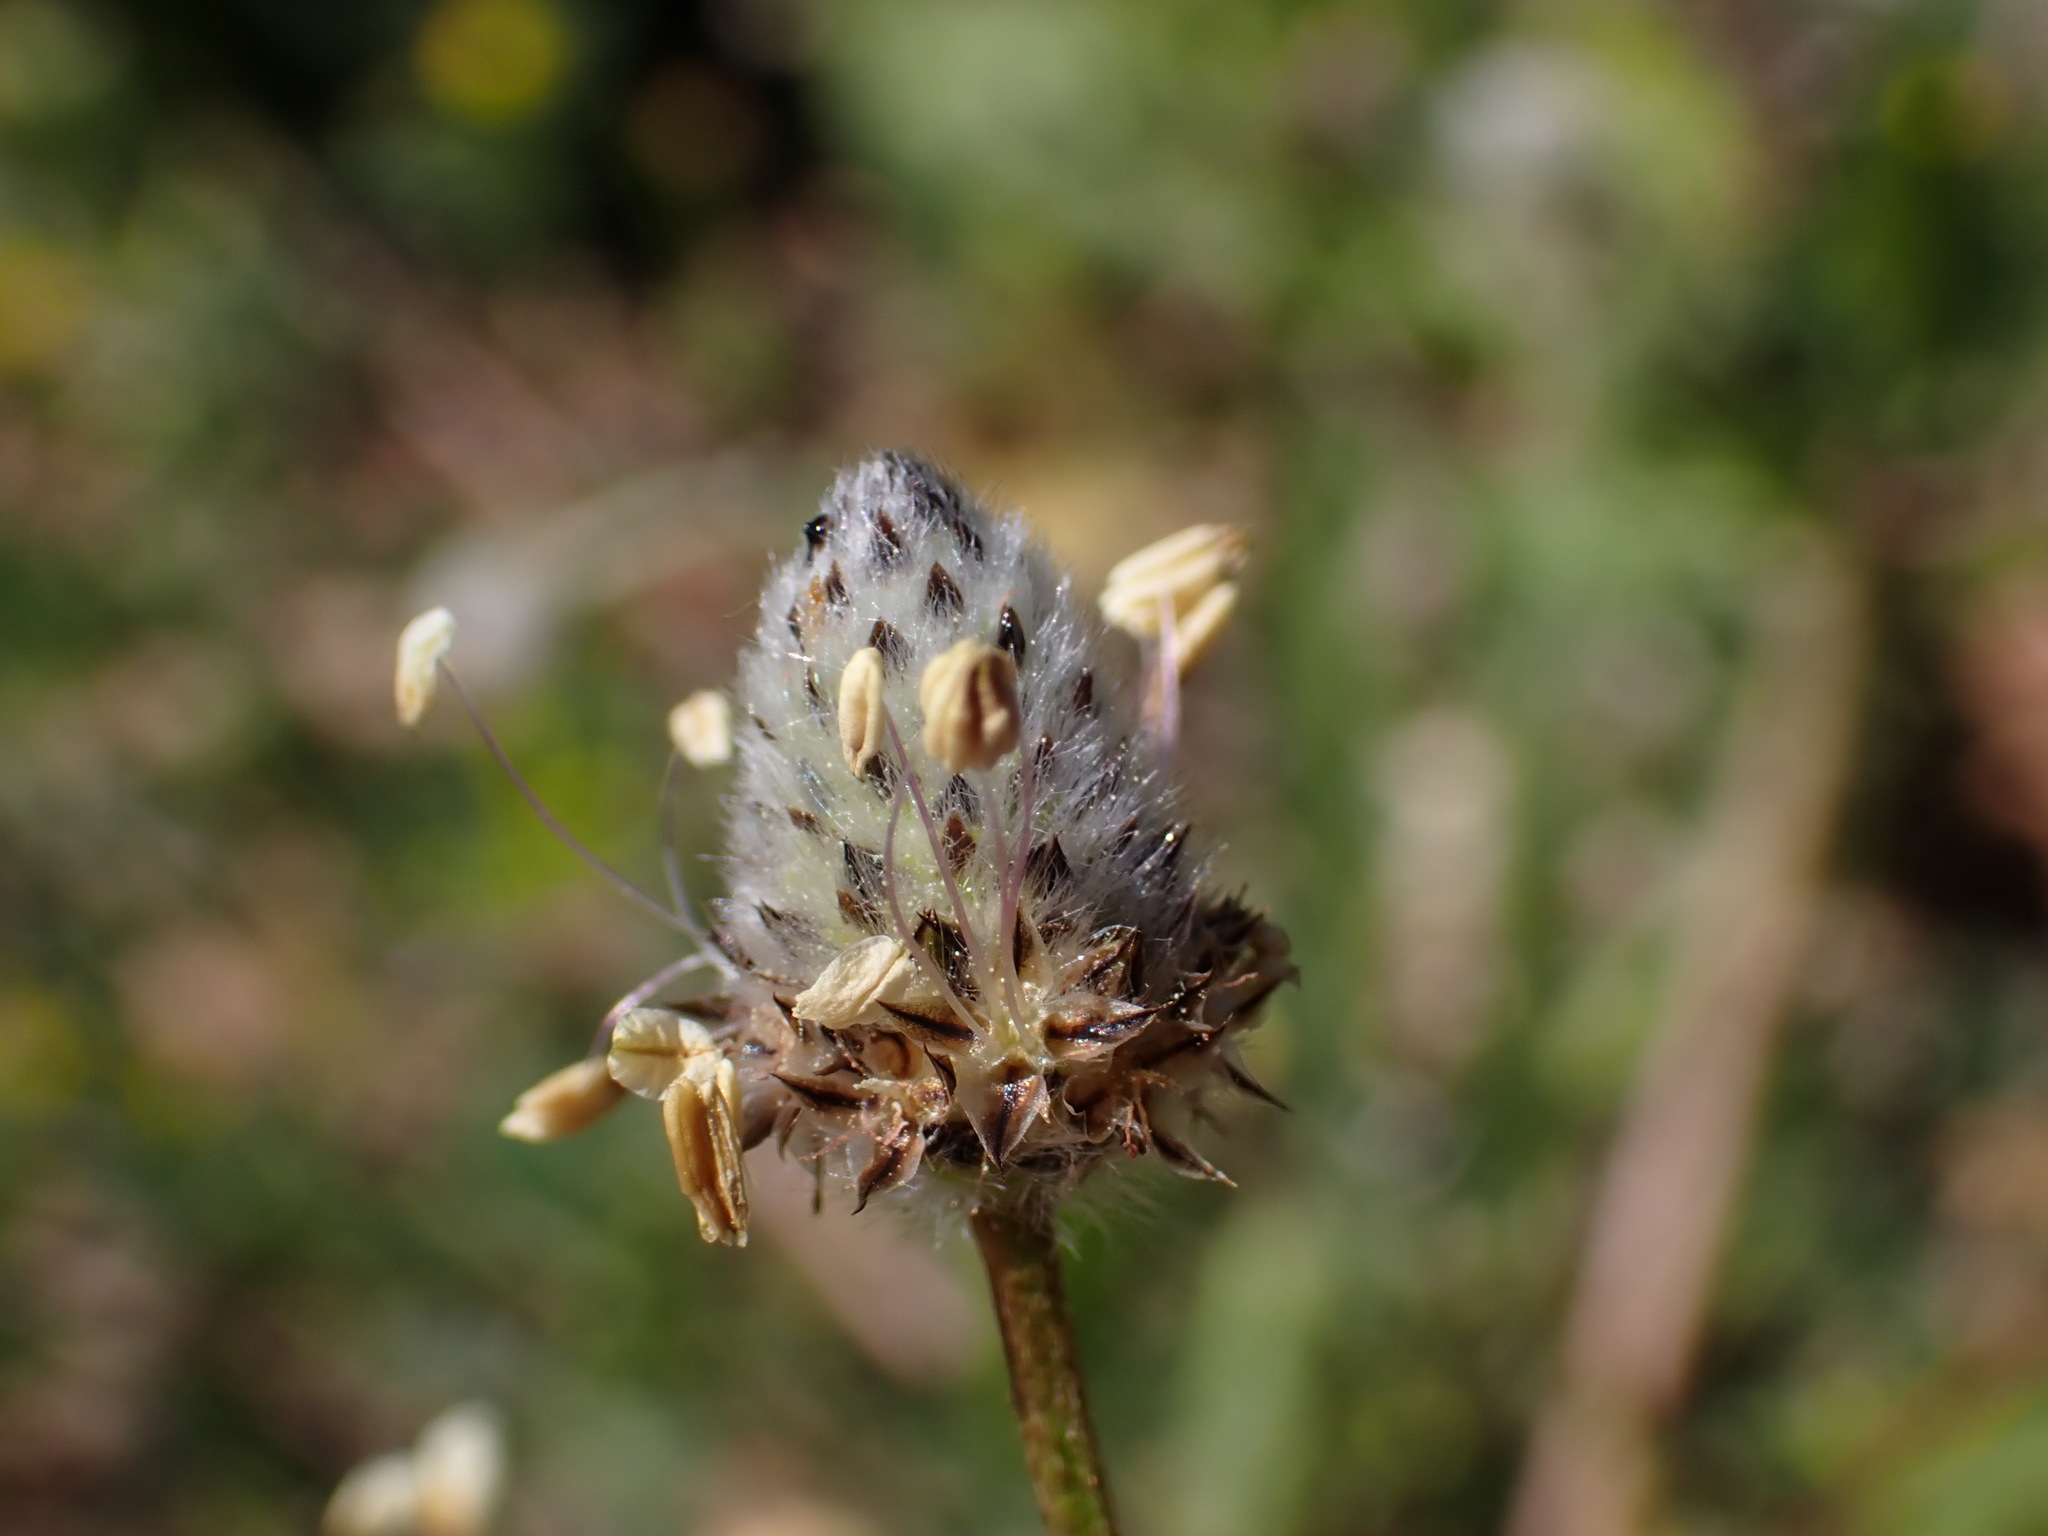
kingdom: Plantae
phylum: Tracheophyta
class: Magnoliopsida
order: Lamiales
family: Plantaginaceae
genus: Plantago
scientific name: Plantago lagopus
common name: Hare-foot plantain
